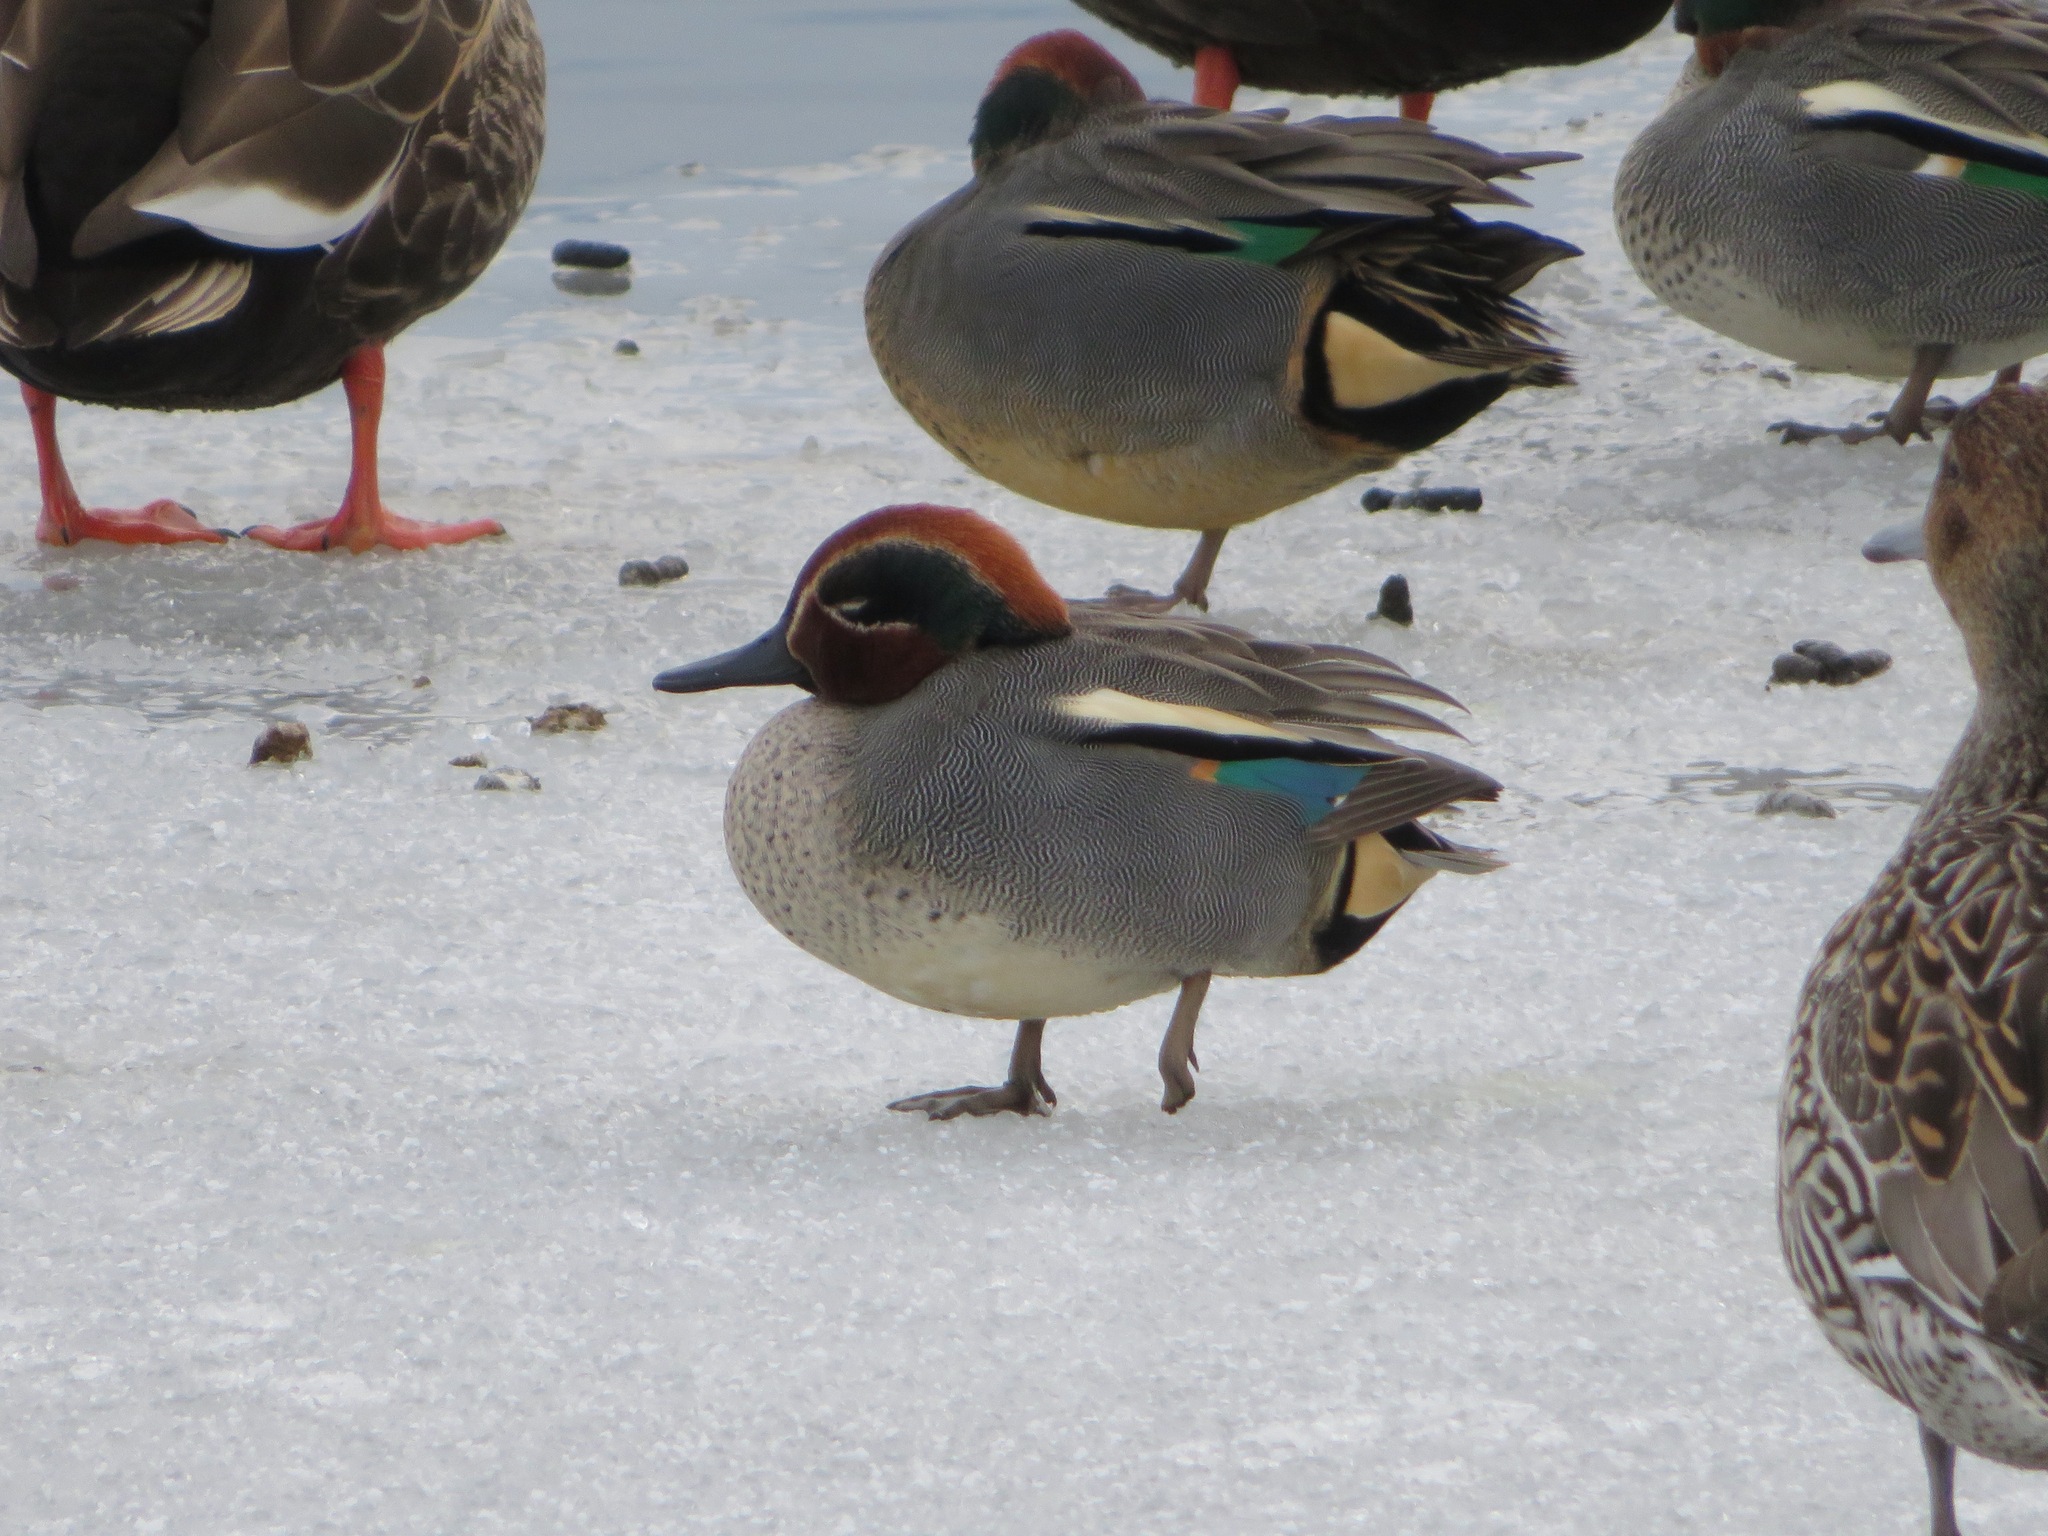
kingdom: Animalia
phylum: Chordata
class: Aves
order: Anseriformes
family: Anatidae
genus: Anas
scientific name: Anas crecca
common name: Eurasian teal
